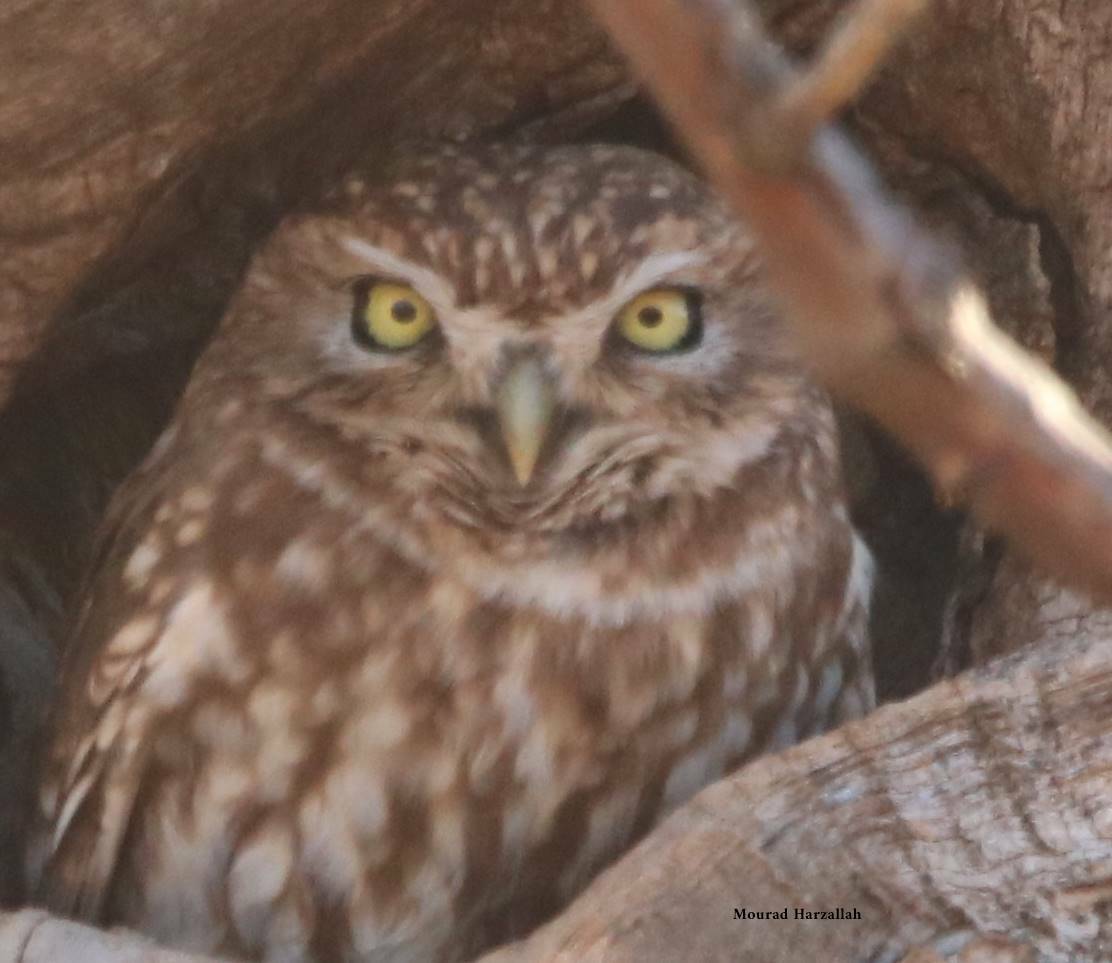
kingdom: Animalia
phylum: Chordata
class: Aves
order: Strigiformes
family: Strigidae
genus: Athene
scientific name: Athene noctua
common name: Little owl
